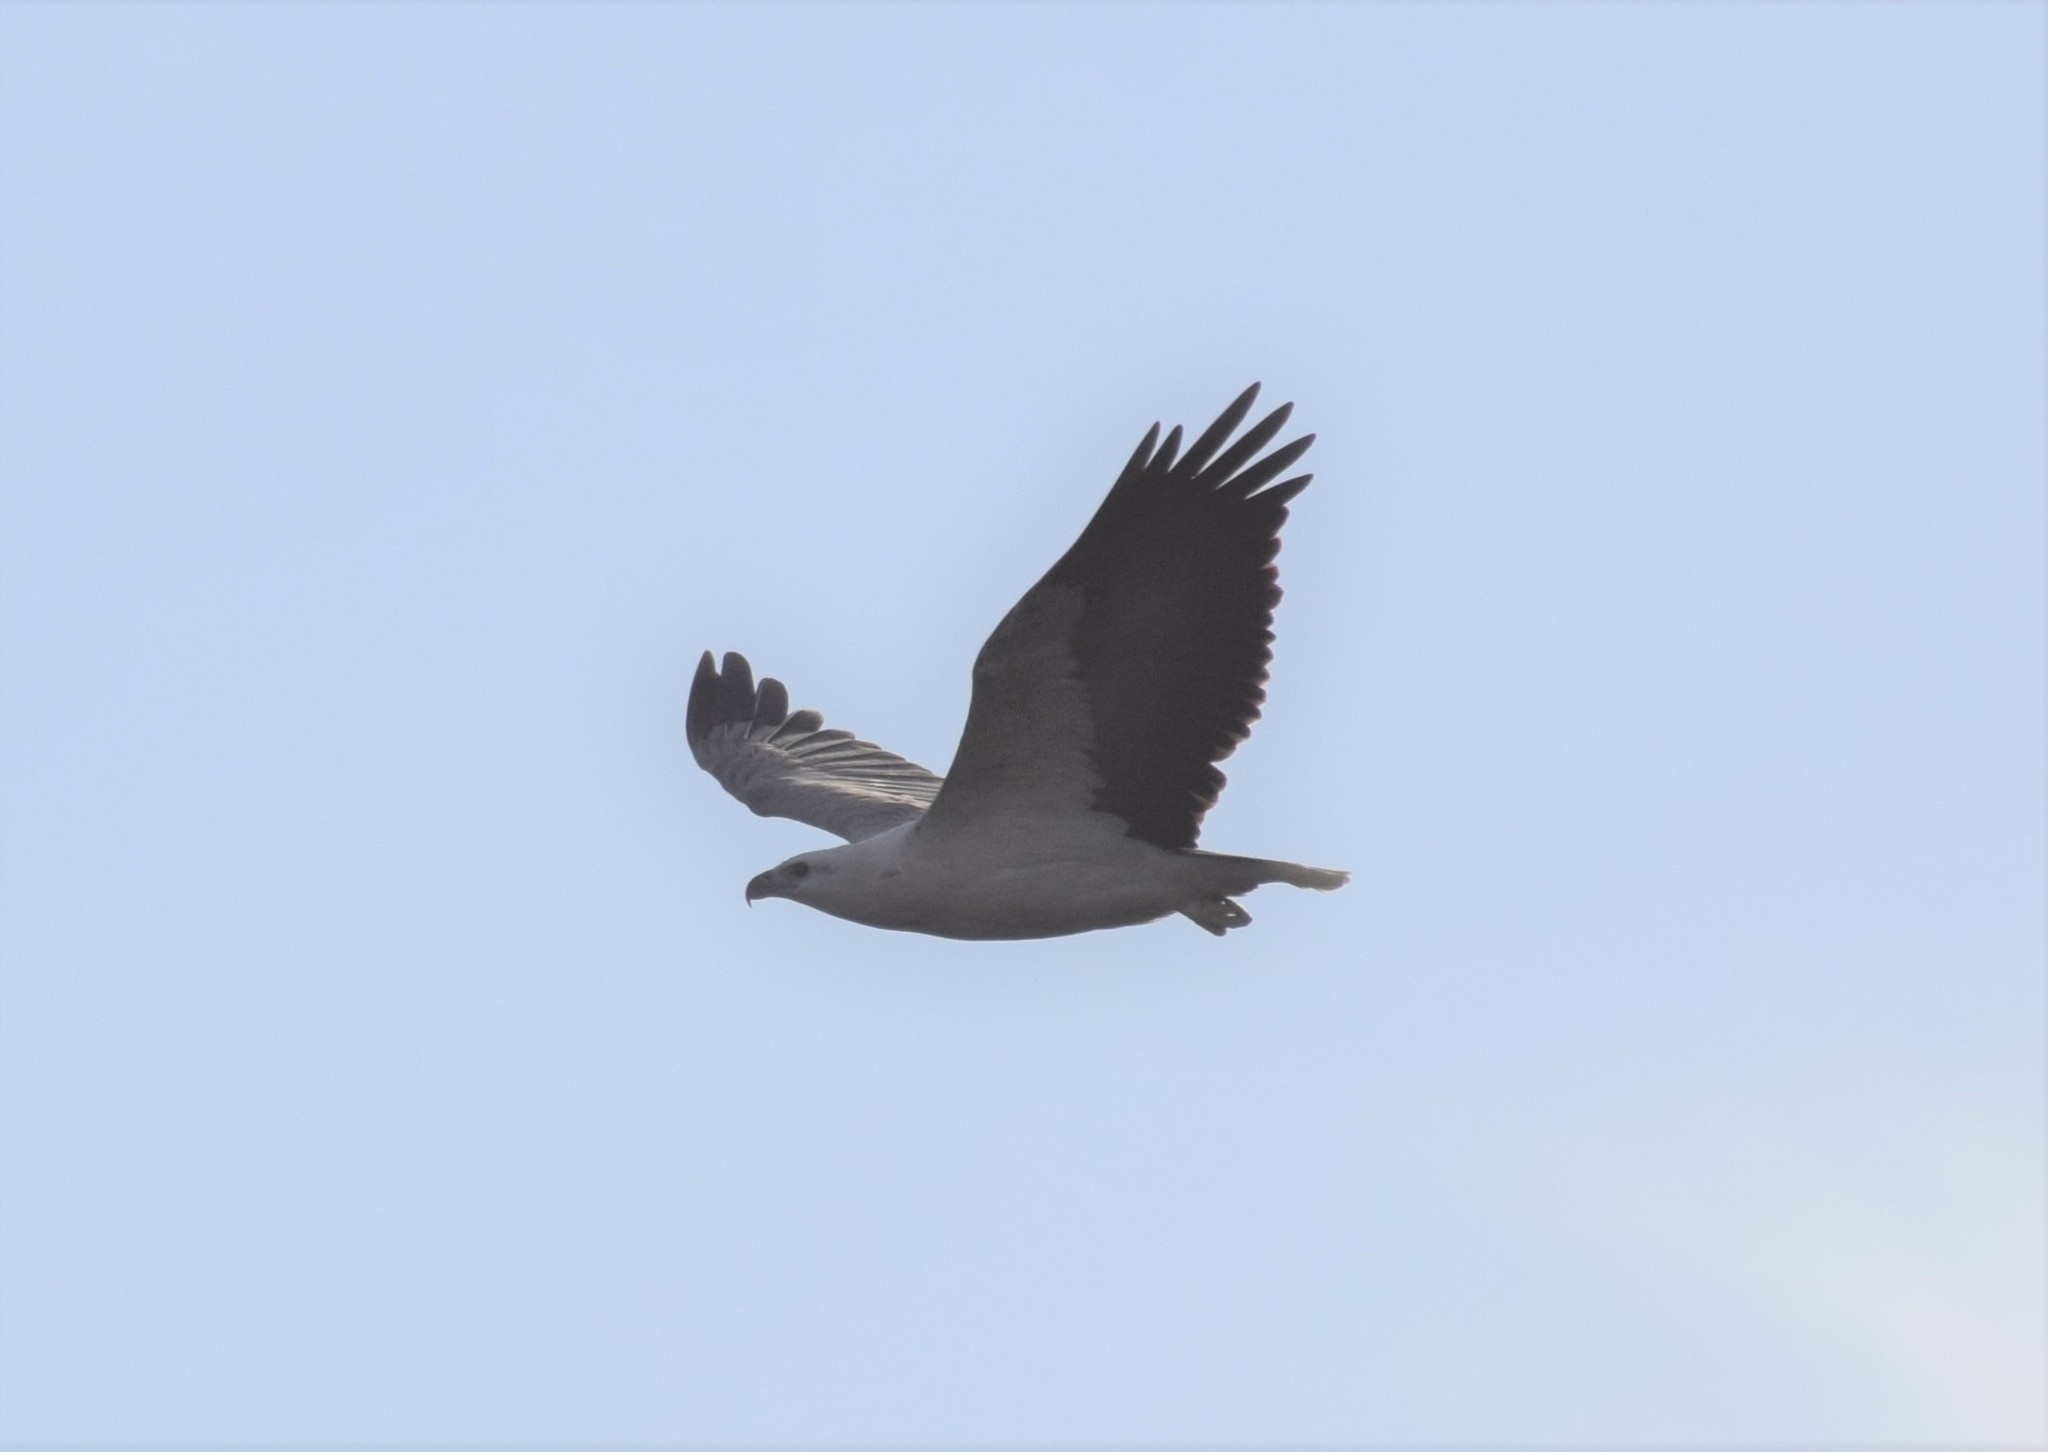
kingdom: Animalia
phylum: Chordata
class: Aves
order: Accipitriformes
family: Accipitridae
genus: Haliaeetus
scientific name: Haliaeetus leucogaster
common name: White-bellied sea eagle
